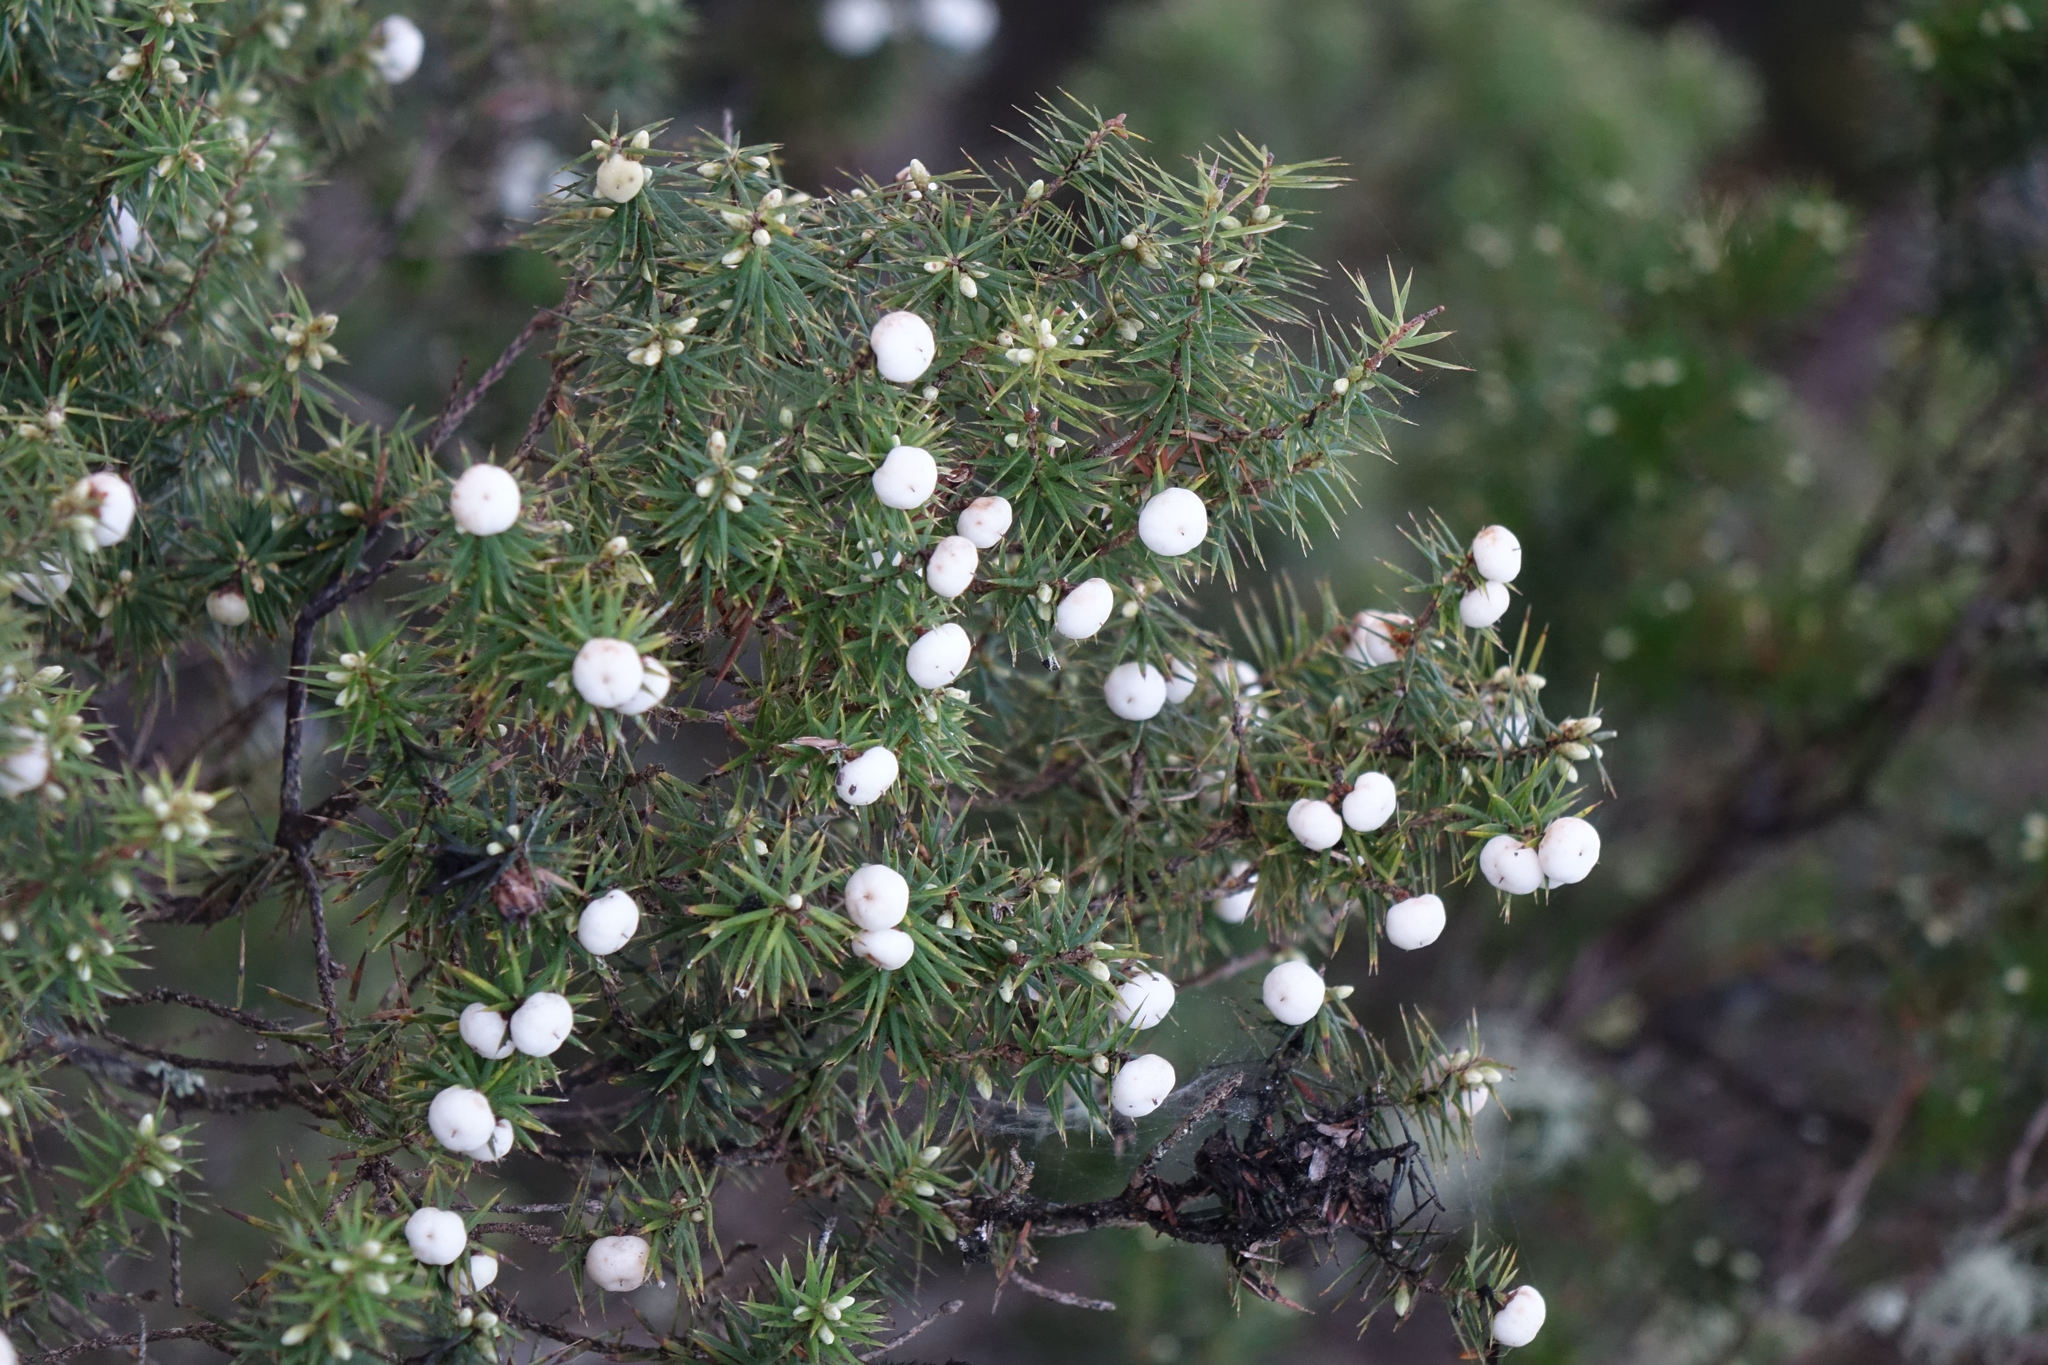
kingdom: Plantae
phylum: Tracheophyta
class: Magnoliopsida
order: Ericales
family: Ericaceae
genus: Leptecophylla
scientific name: Leptecophylla juniperina
